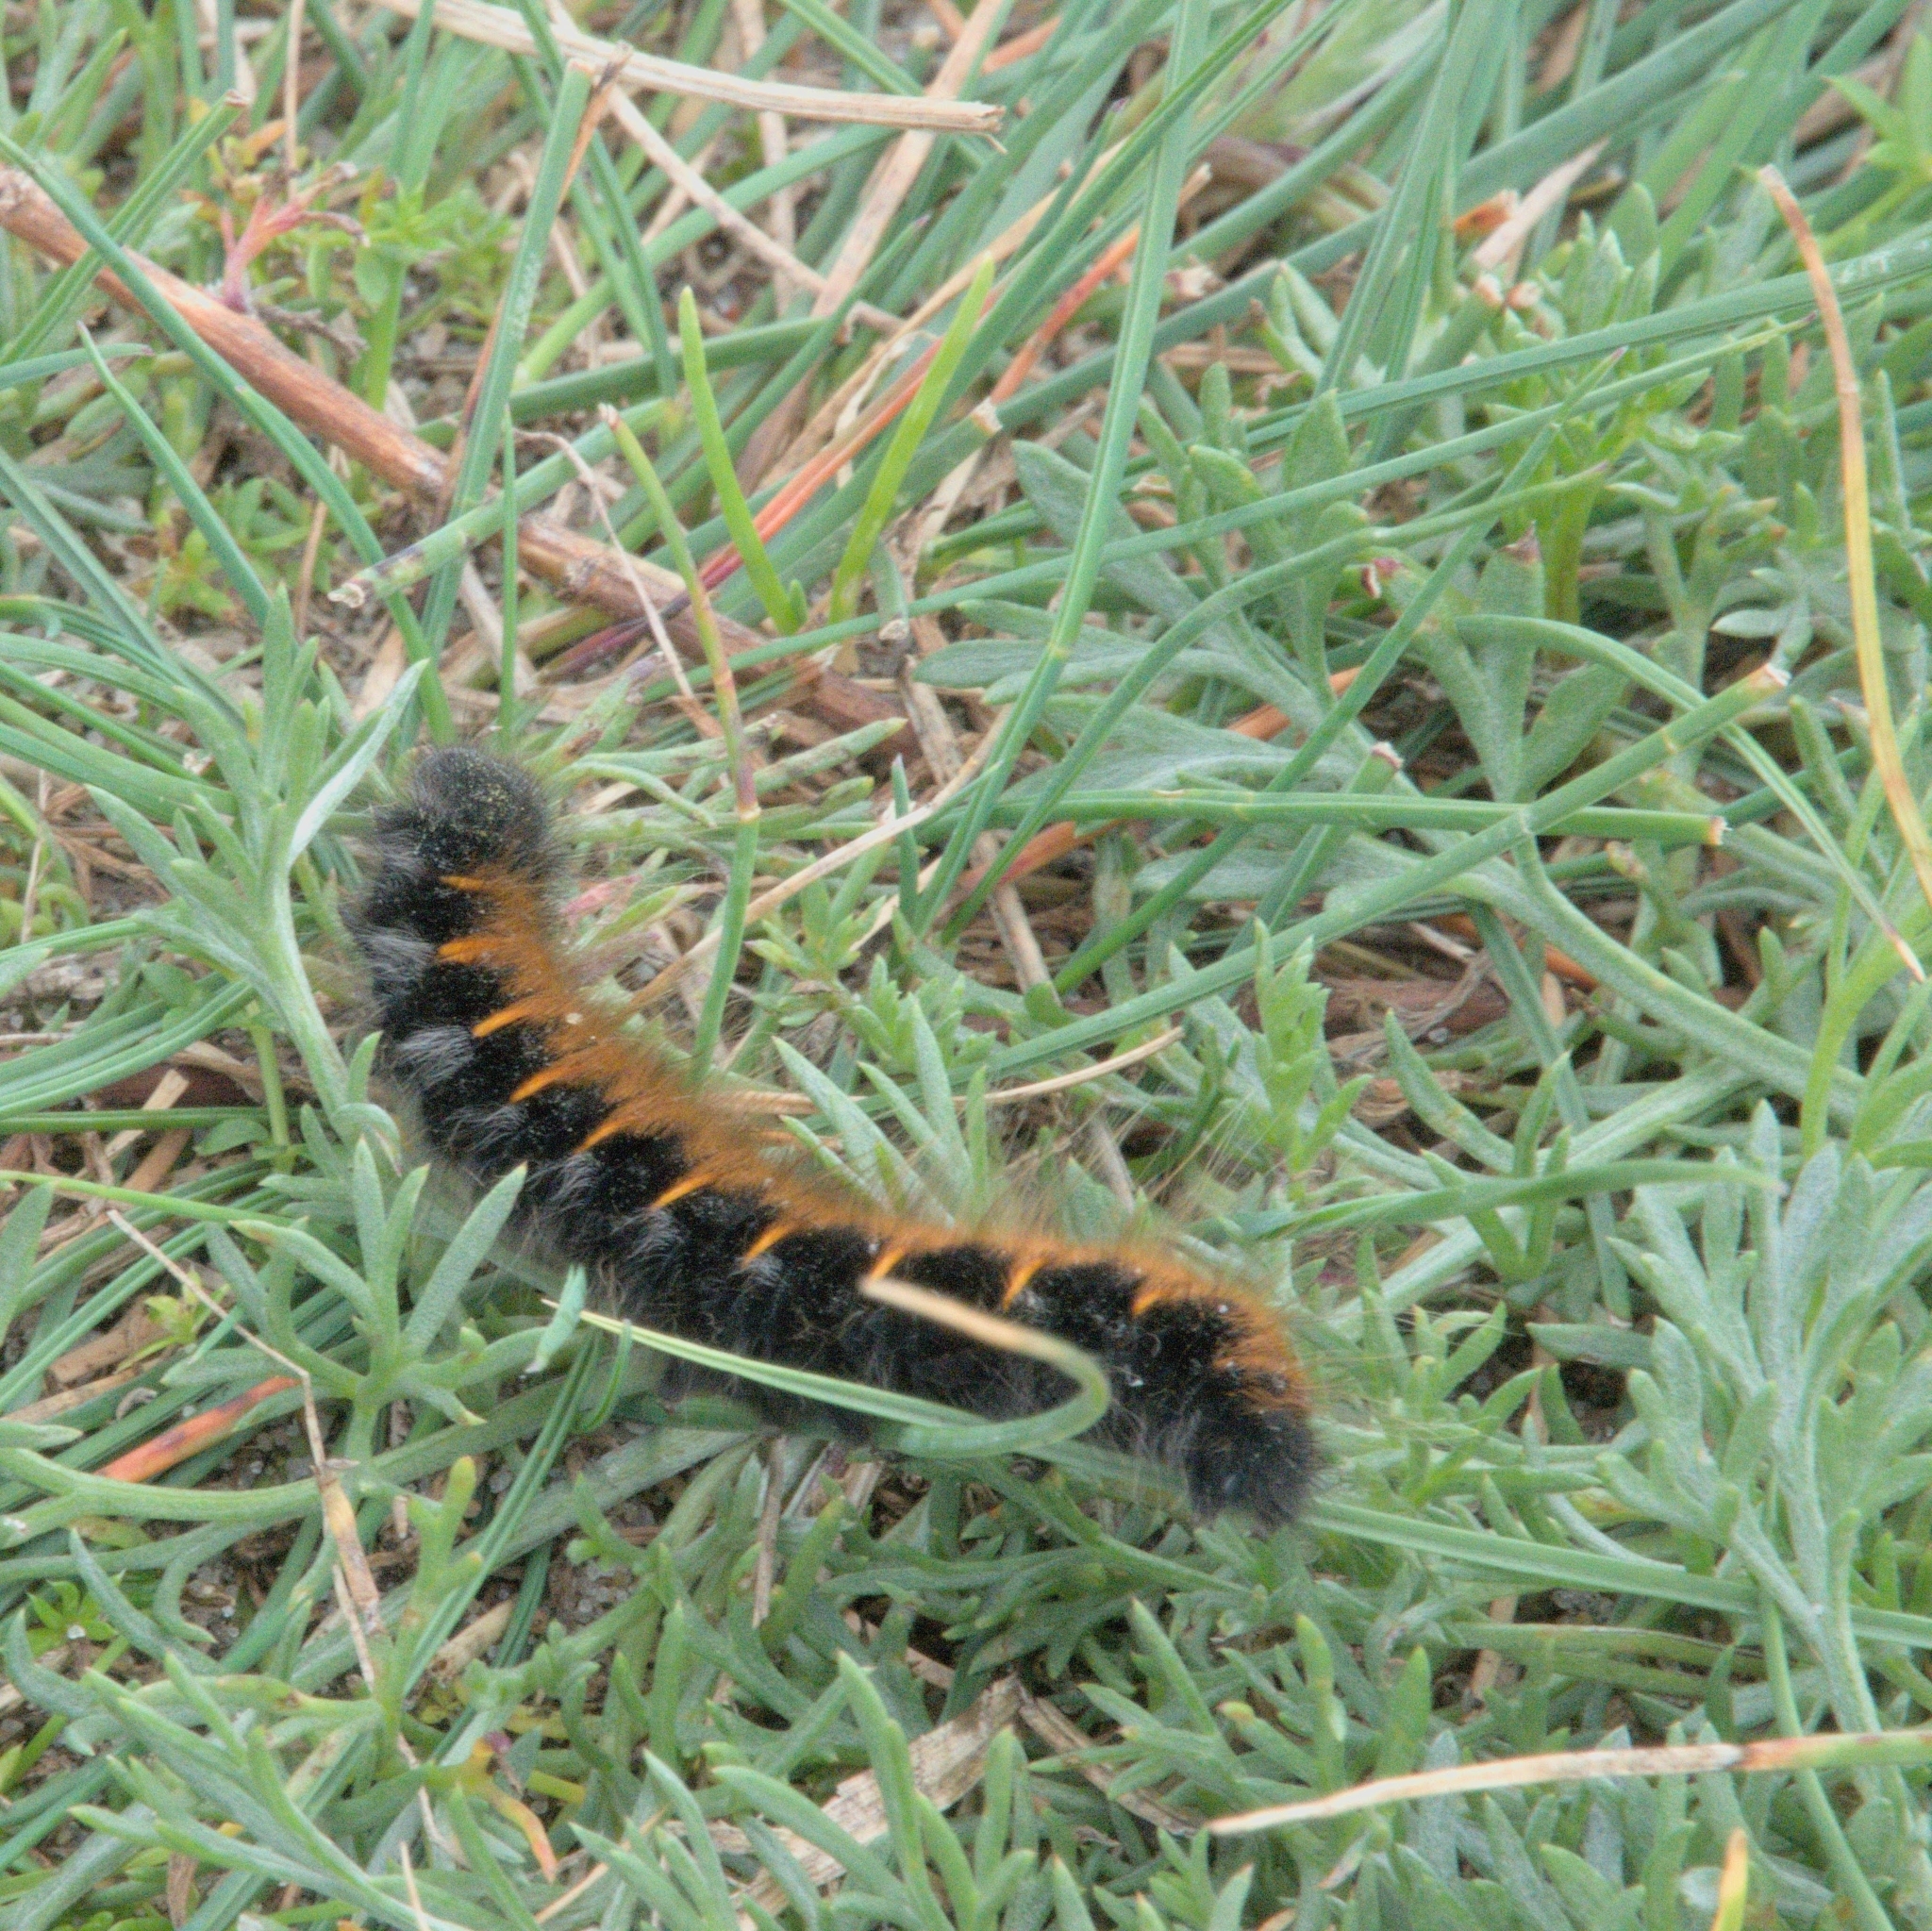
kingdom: Animalia
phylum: Arthropoda
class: Insecta
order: Lepidoptera
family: Lasiocampidae
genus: Macrothylacia
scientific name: Macrothylacia rubi
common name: Fox moth
